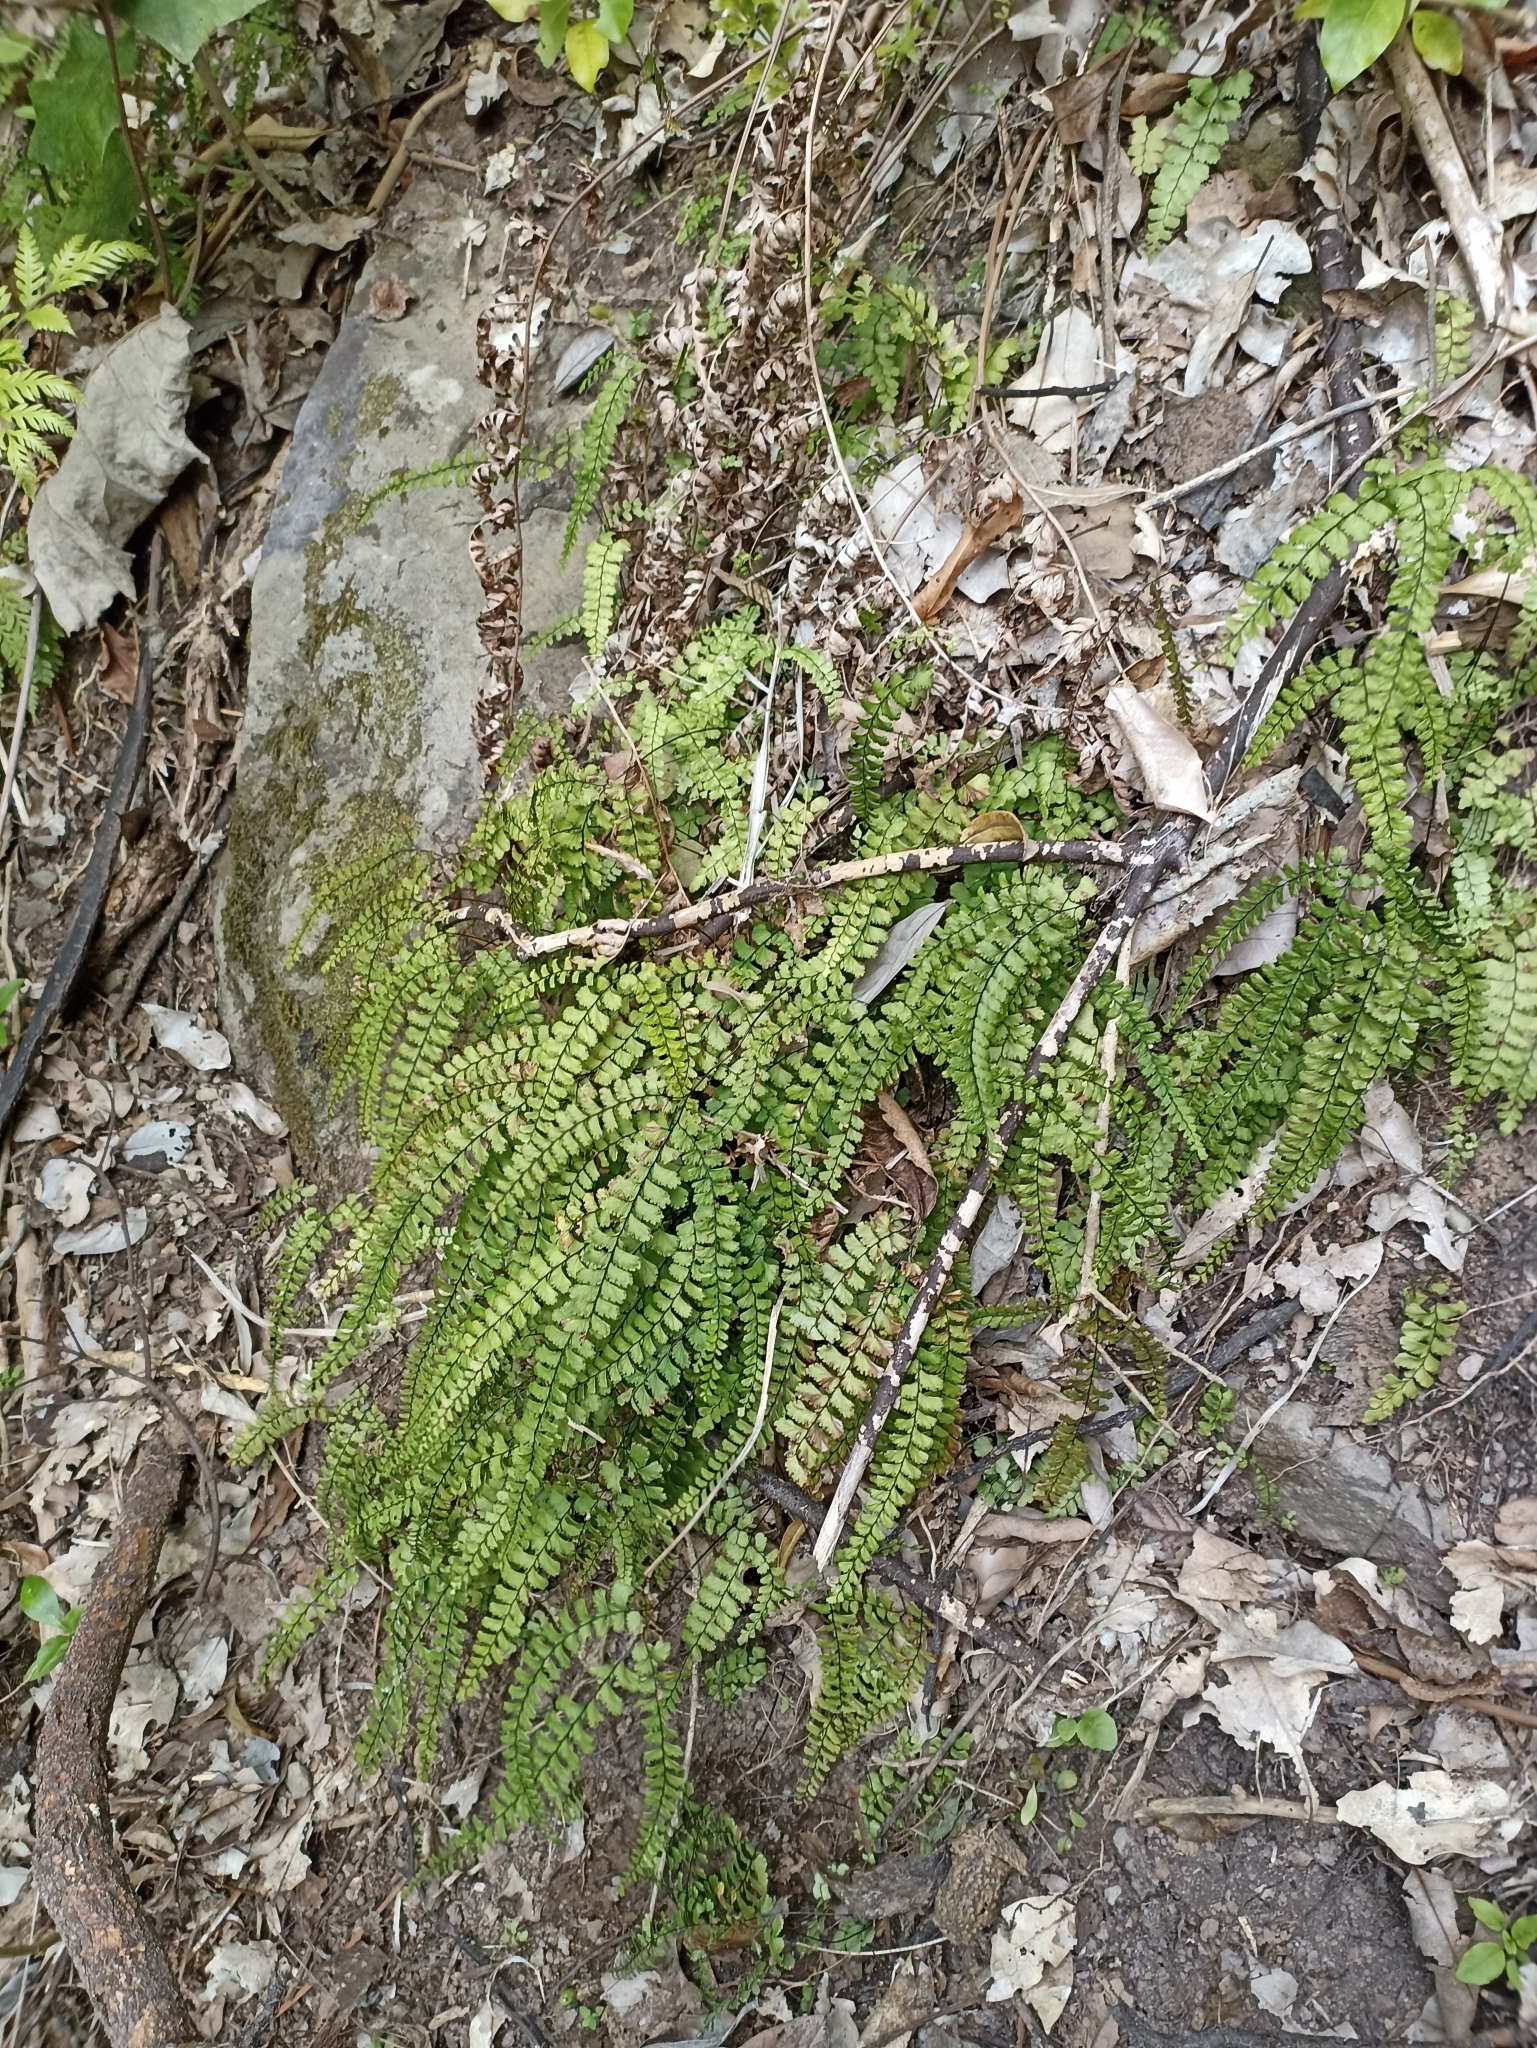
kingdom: Plantae
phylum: Tracheophyta
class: Polypodiopsida
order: Polypodiales
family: Pteridaceae
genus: Adiantum
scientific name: Adiantum cunninghamii
